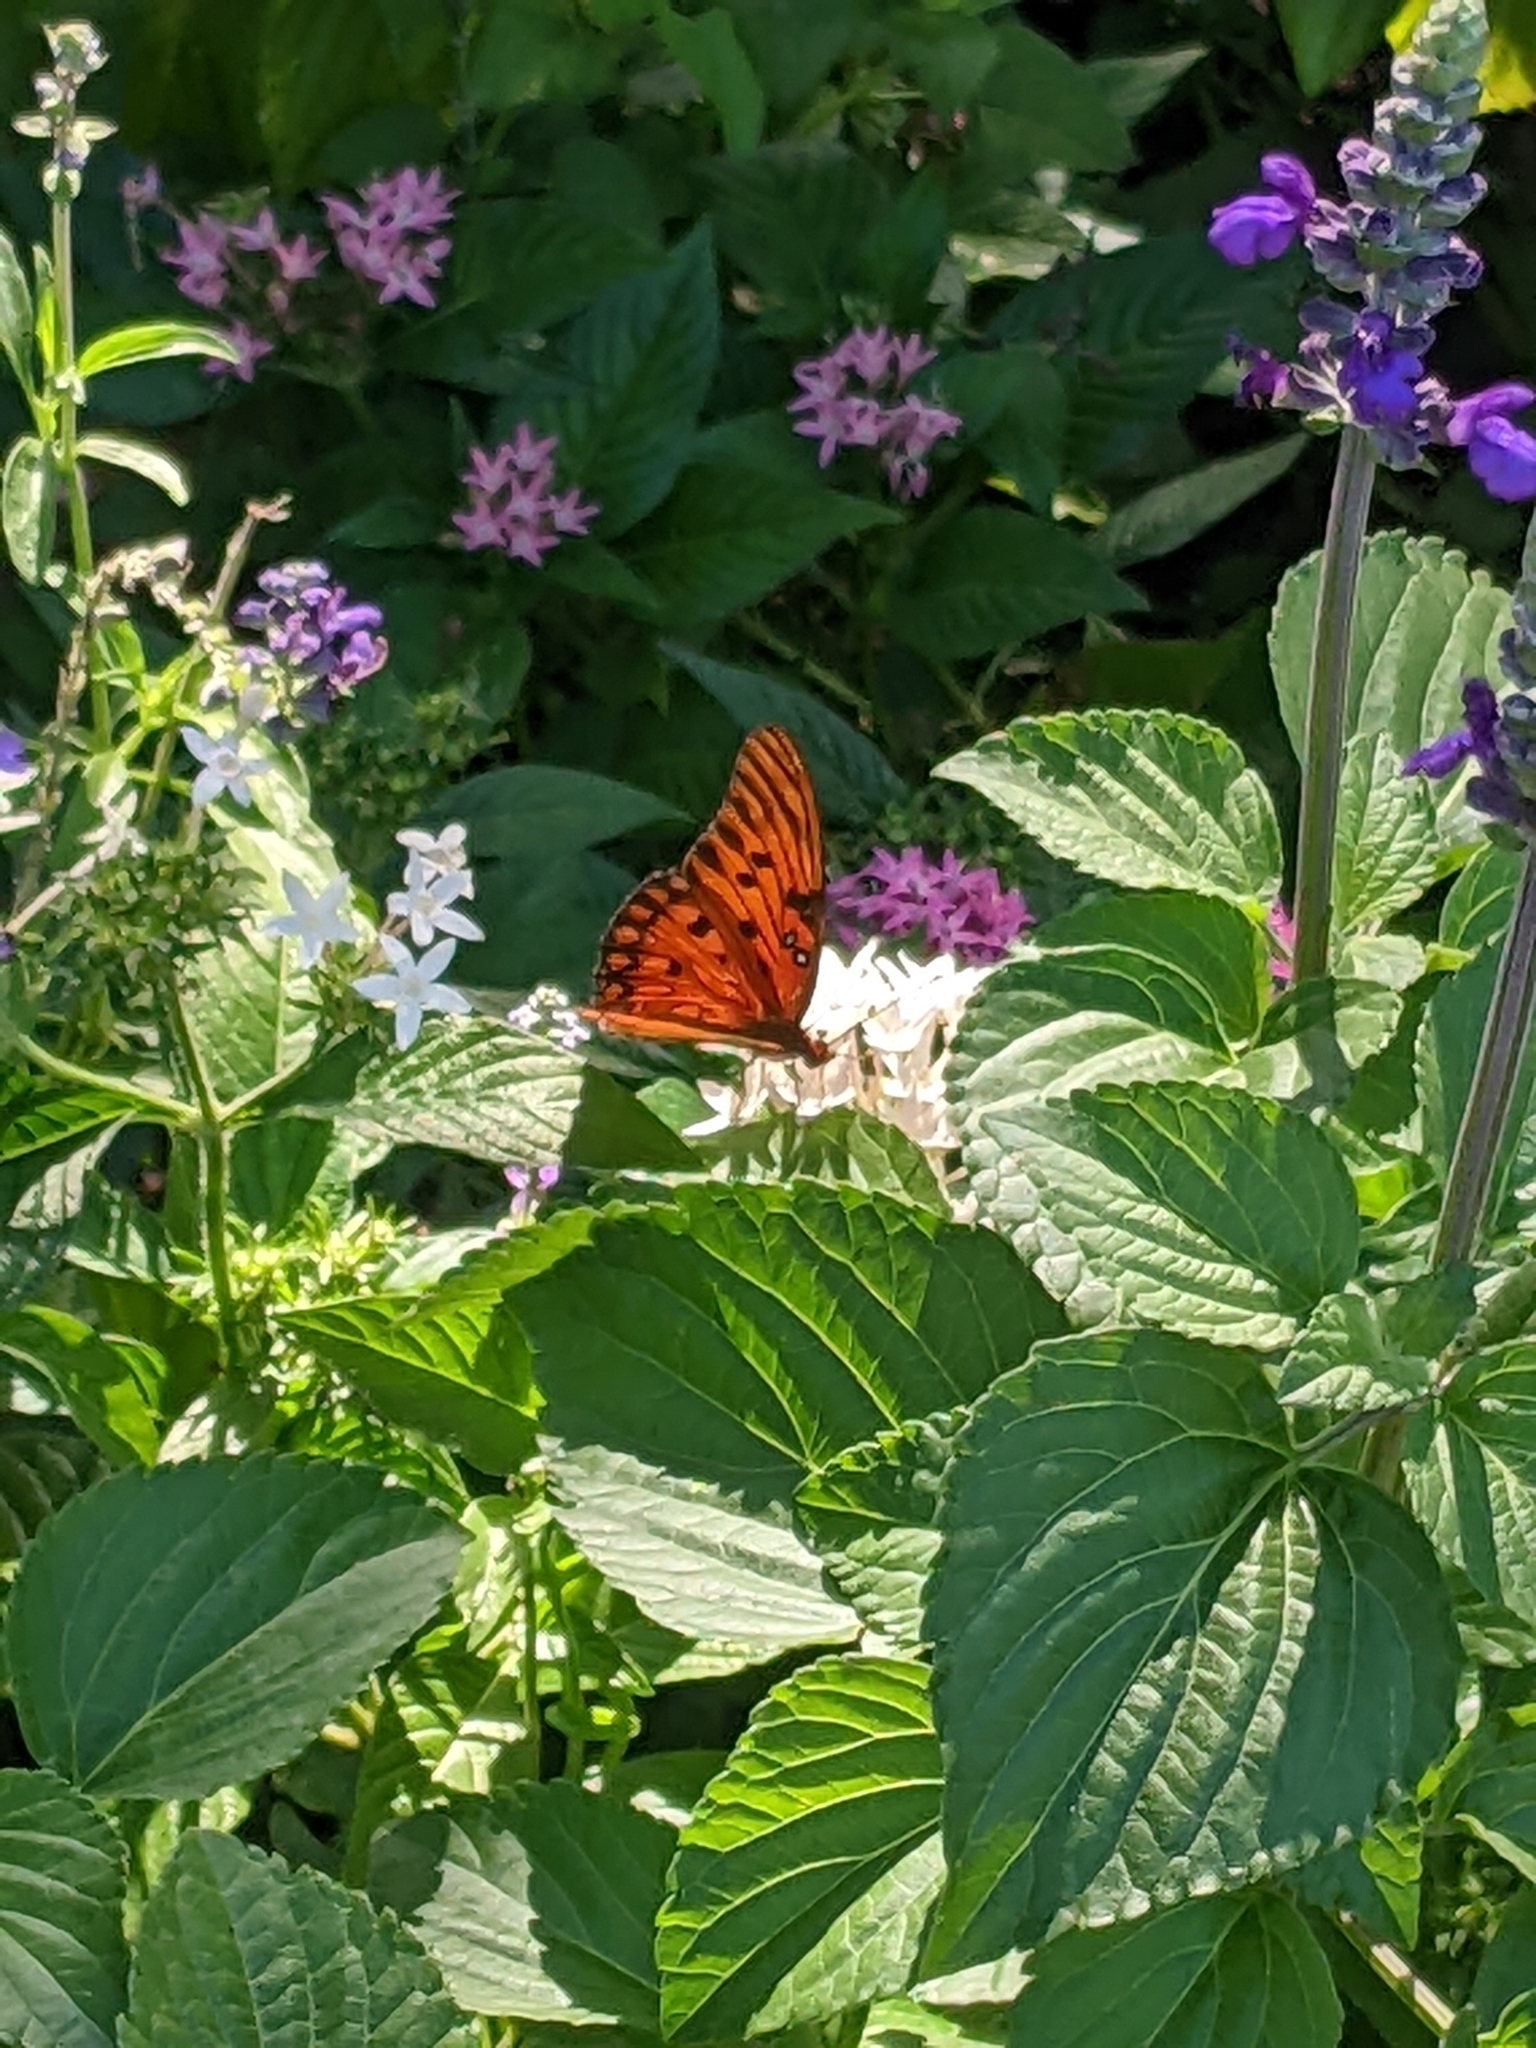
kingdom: Animalia
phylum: Arthropoda
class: Insecta
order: Lepidoptera
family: Nymphalidae
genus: Dione
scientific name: Dione vanillae
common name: Gulf fritillary
